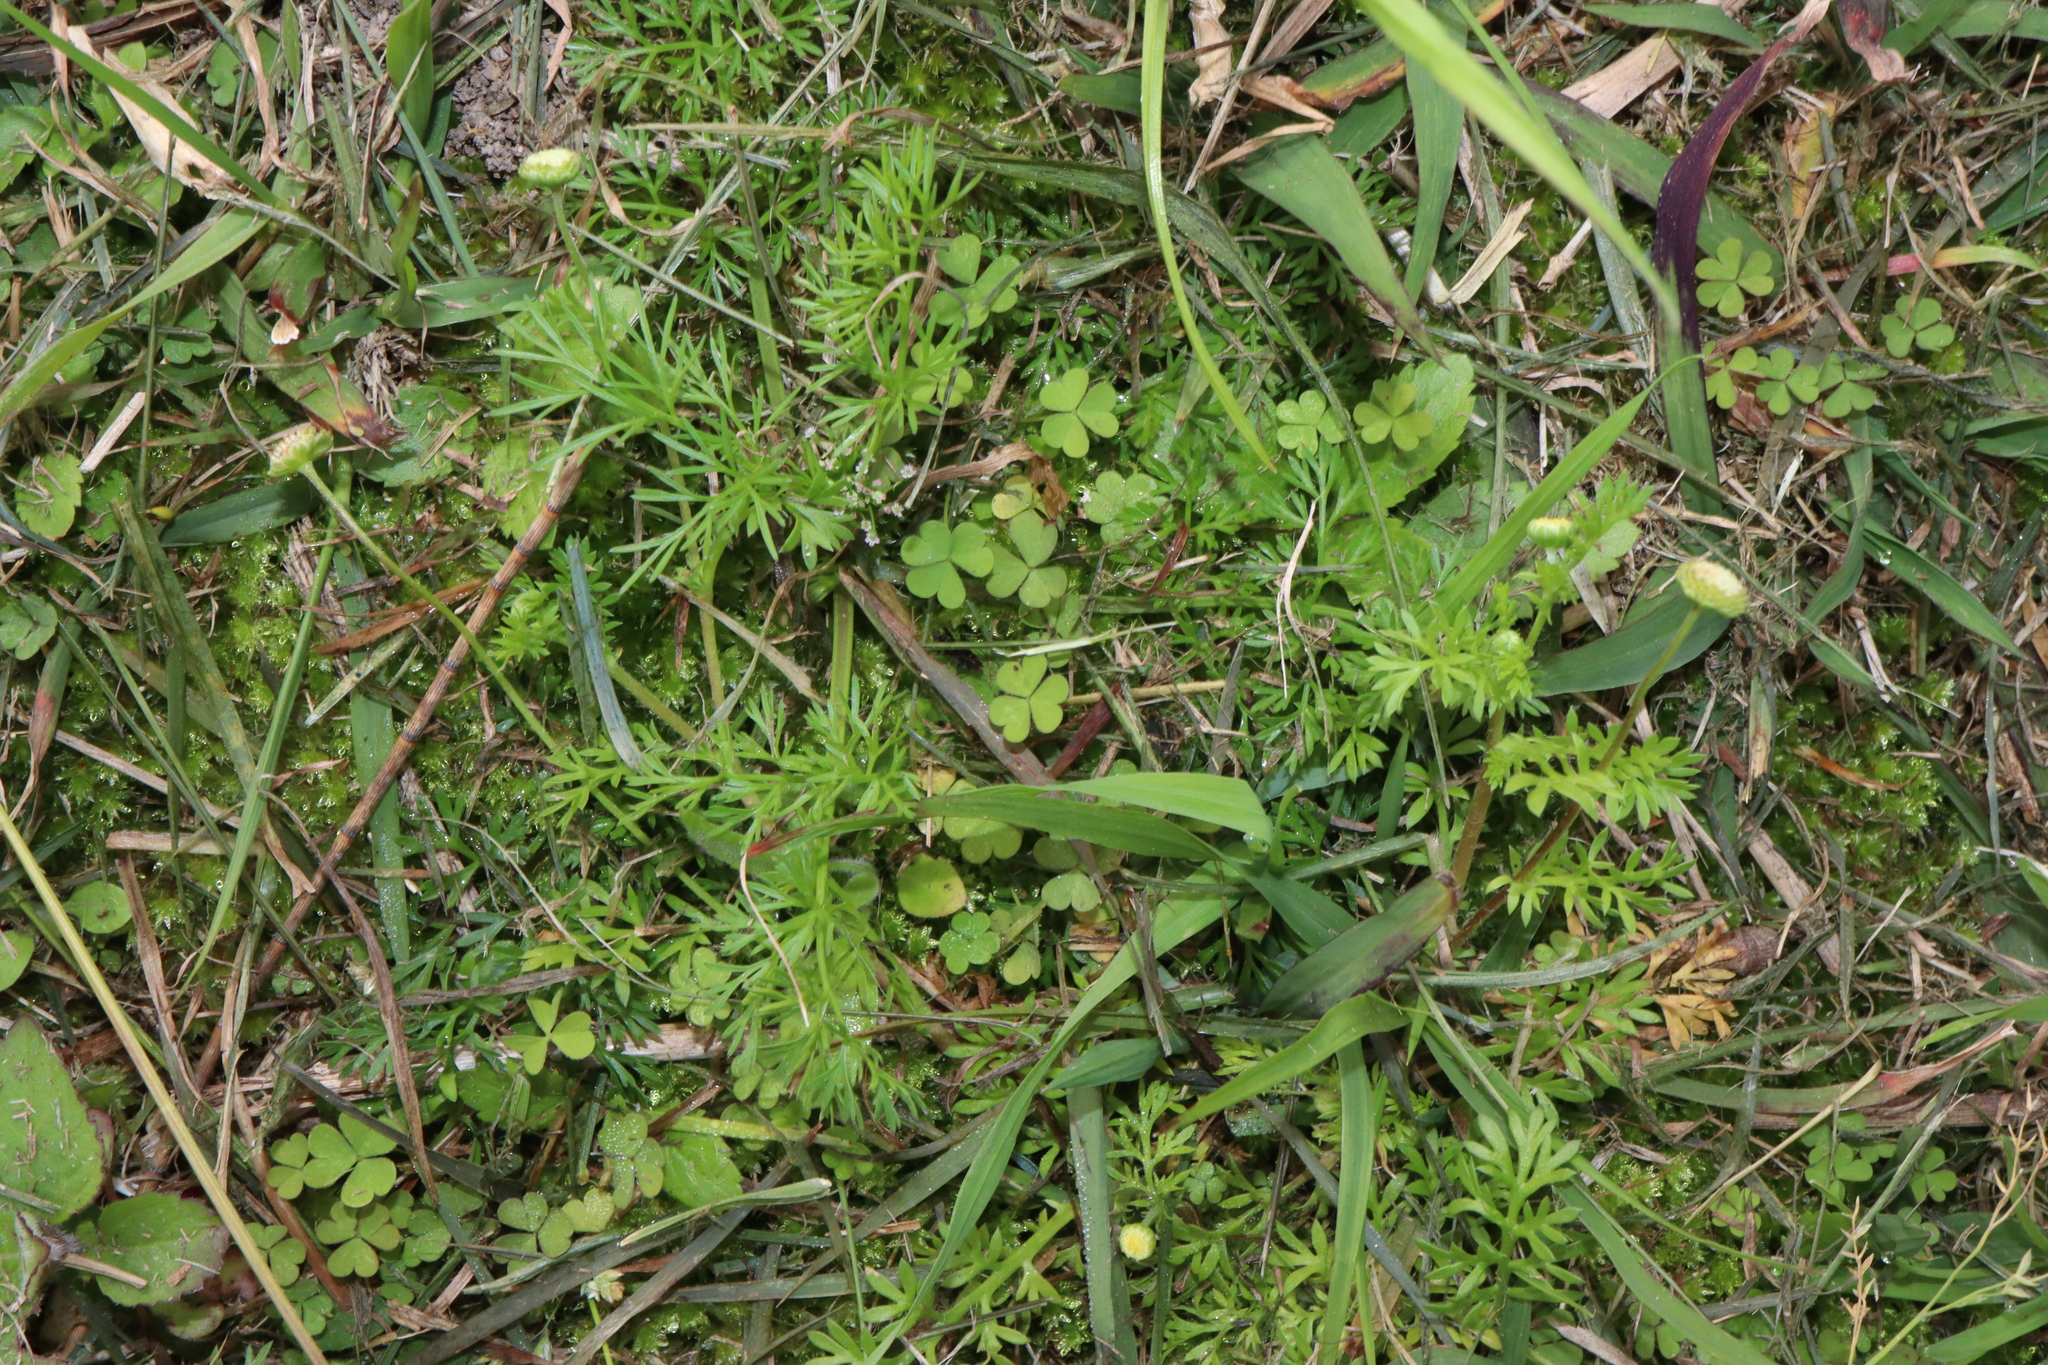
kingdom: Plantae
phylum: Tracheophyta
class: Magnoliopsida
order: Asterales
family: Asteraceae
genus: Cotula
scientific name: Cotula australis
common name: Australian waterbuttons
